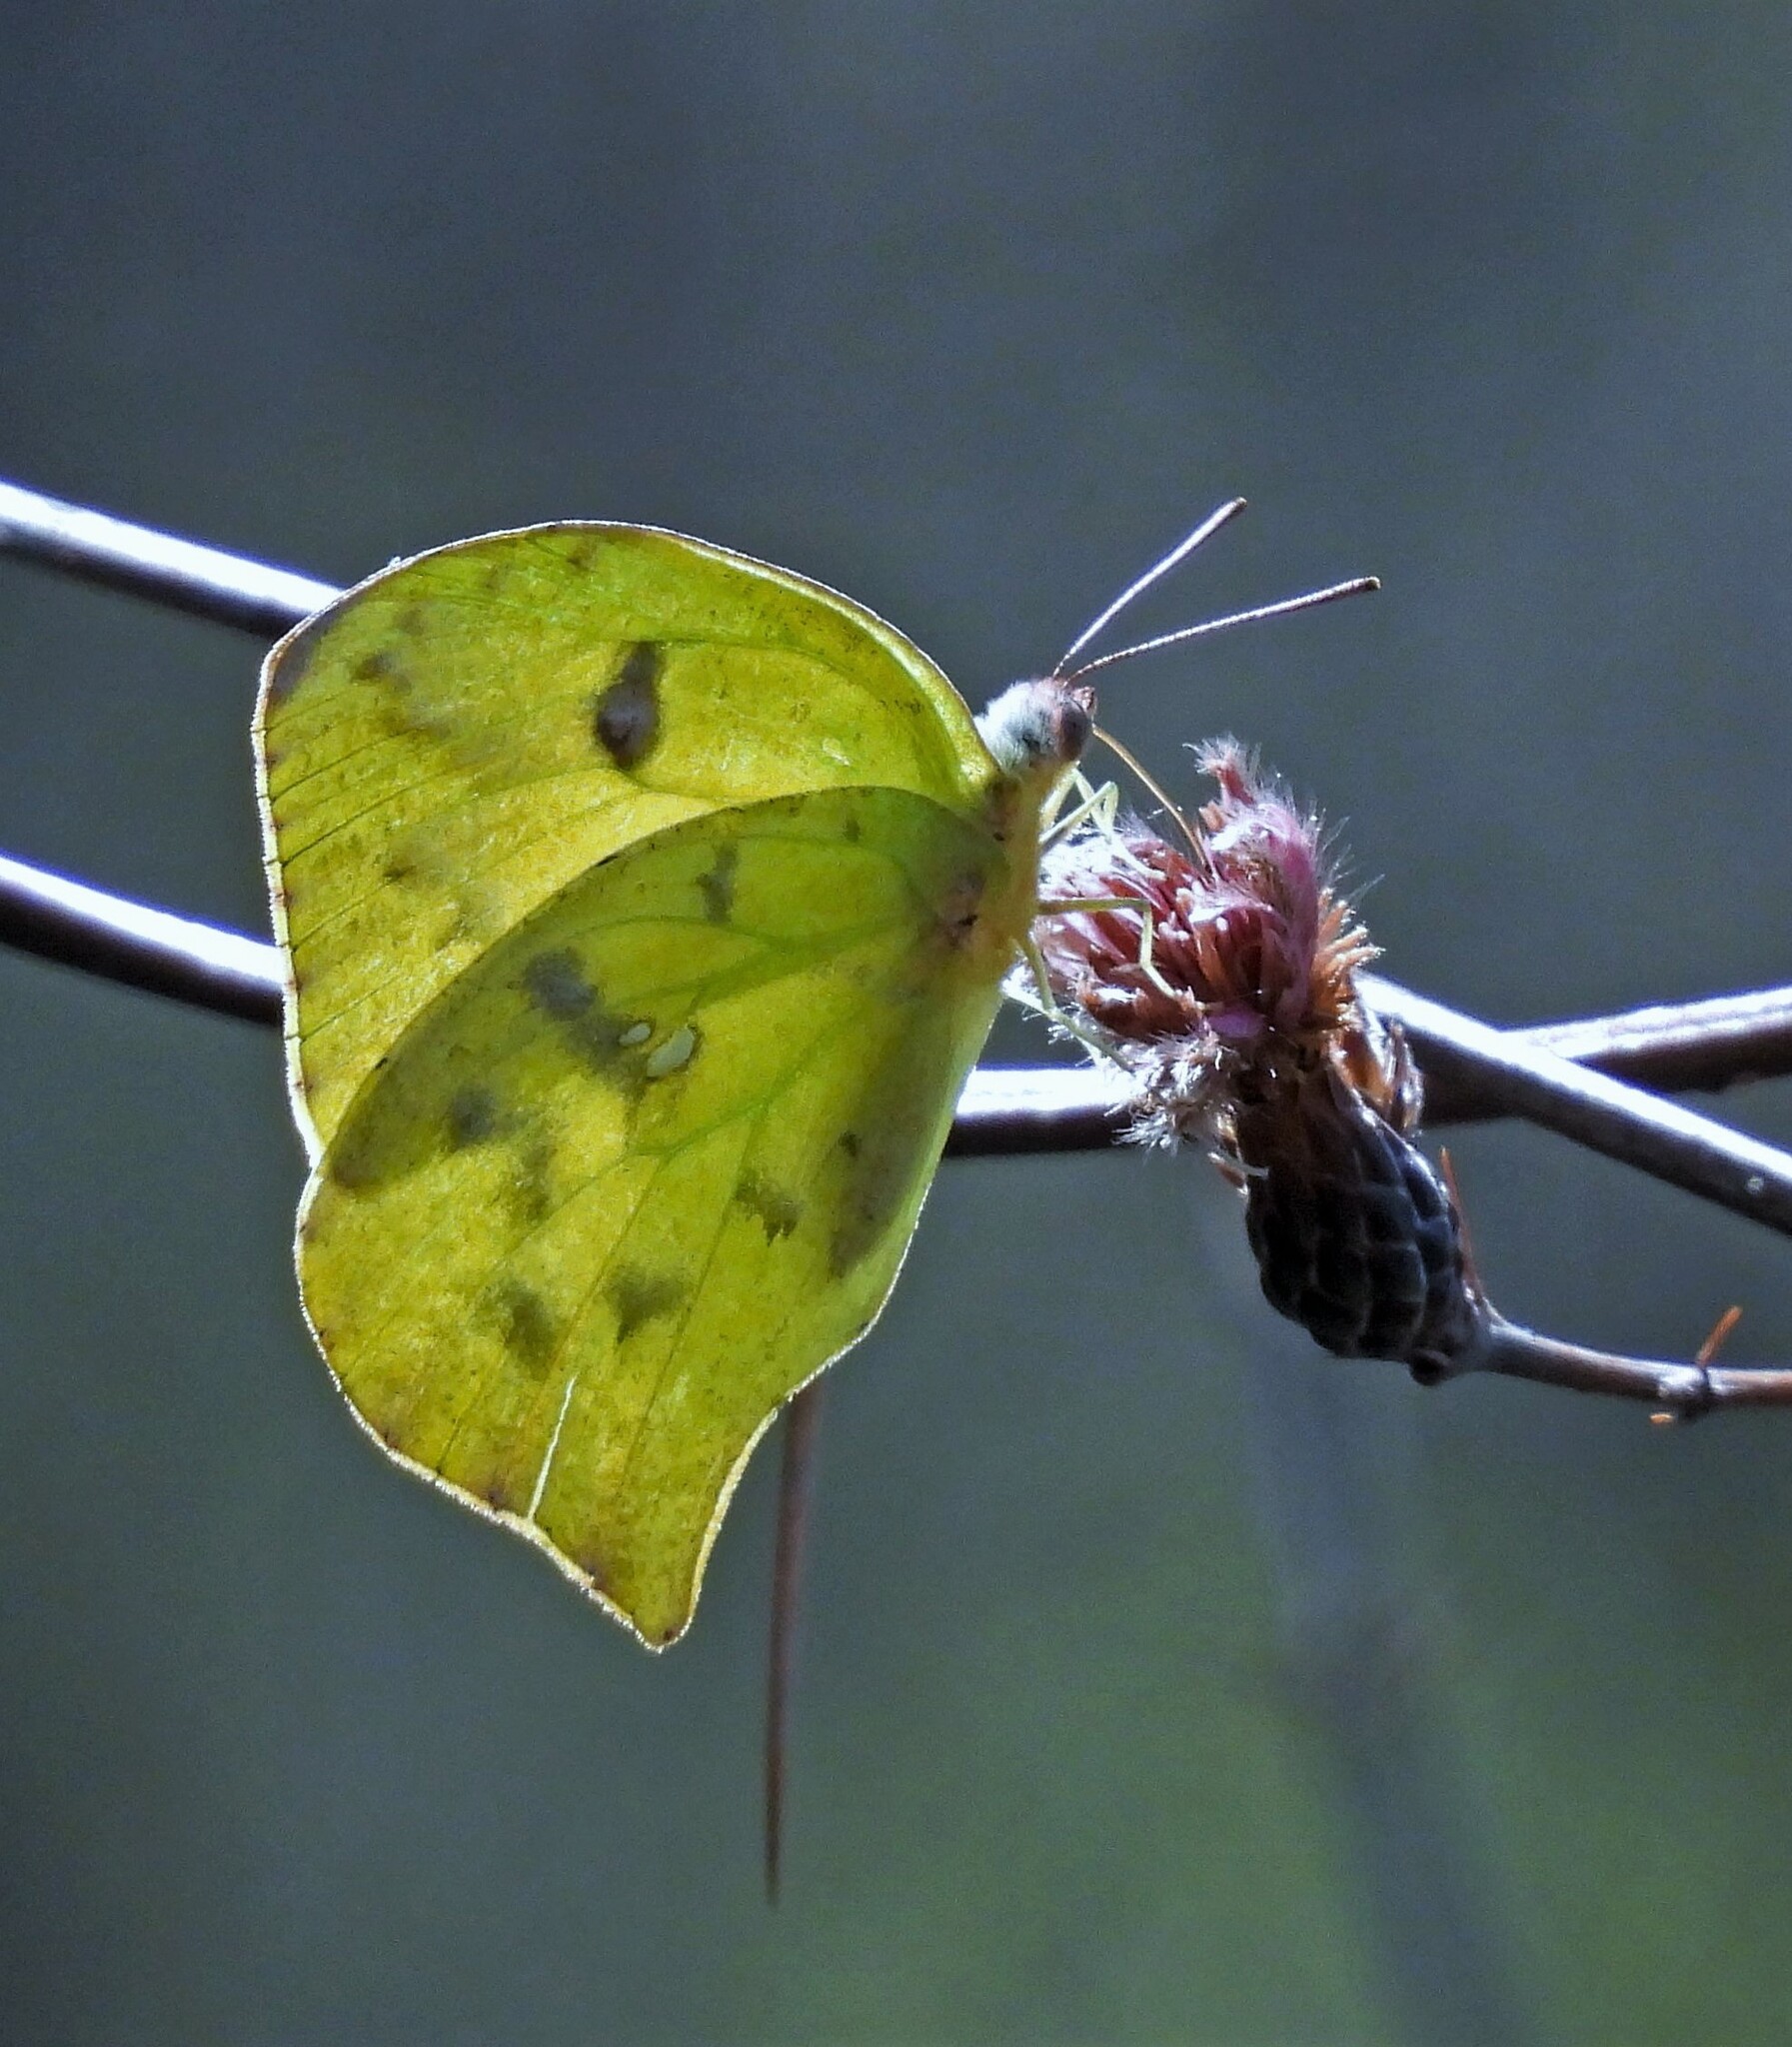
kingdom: Animalia
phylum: Arthropoda
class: Insecta
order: Lepidoptera
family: Pieridae
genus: Phoebis
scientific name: Phoebis neocypris
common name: Tailed sulphur
